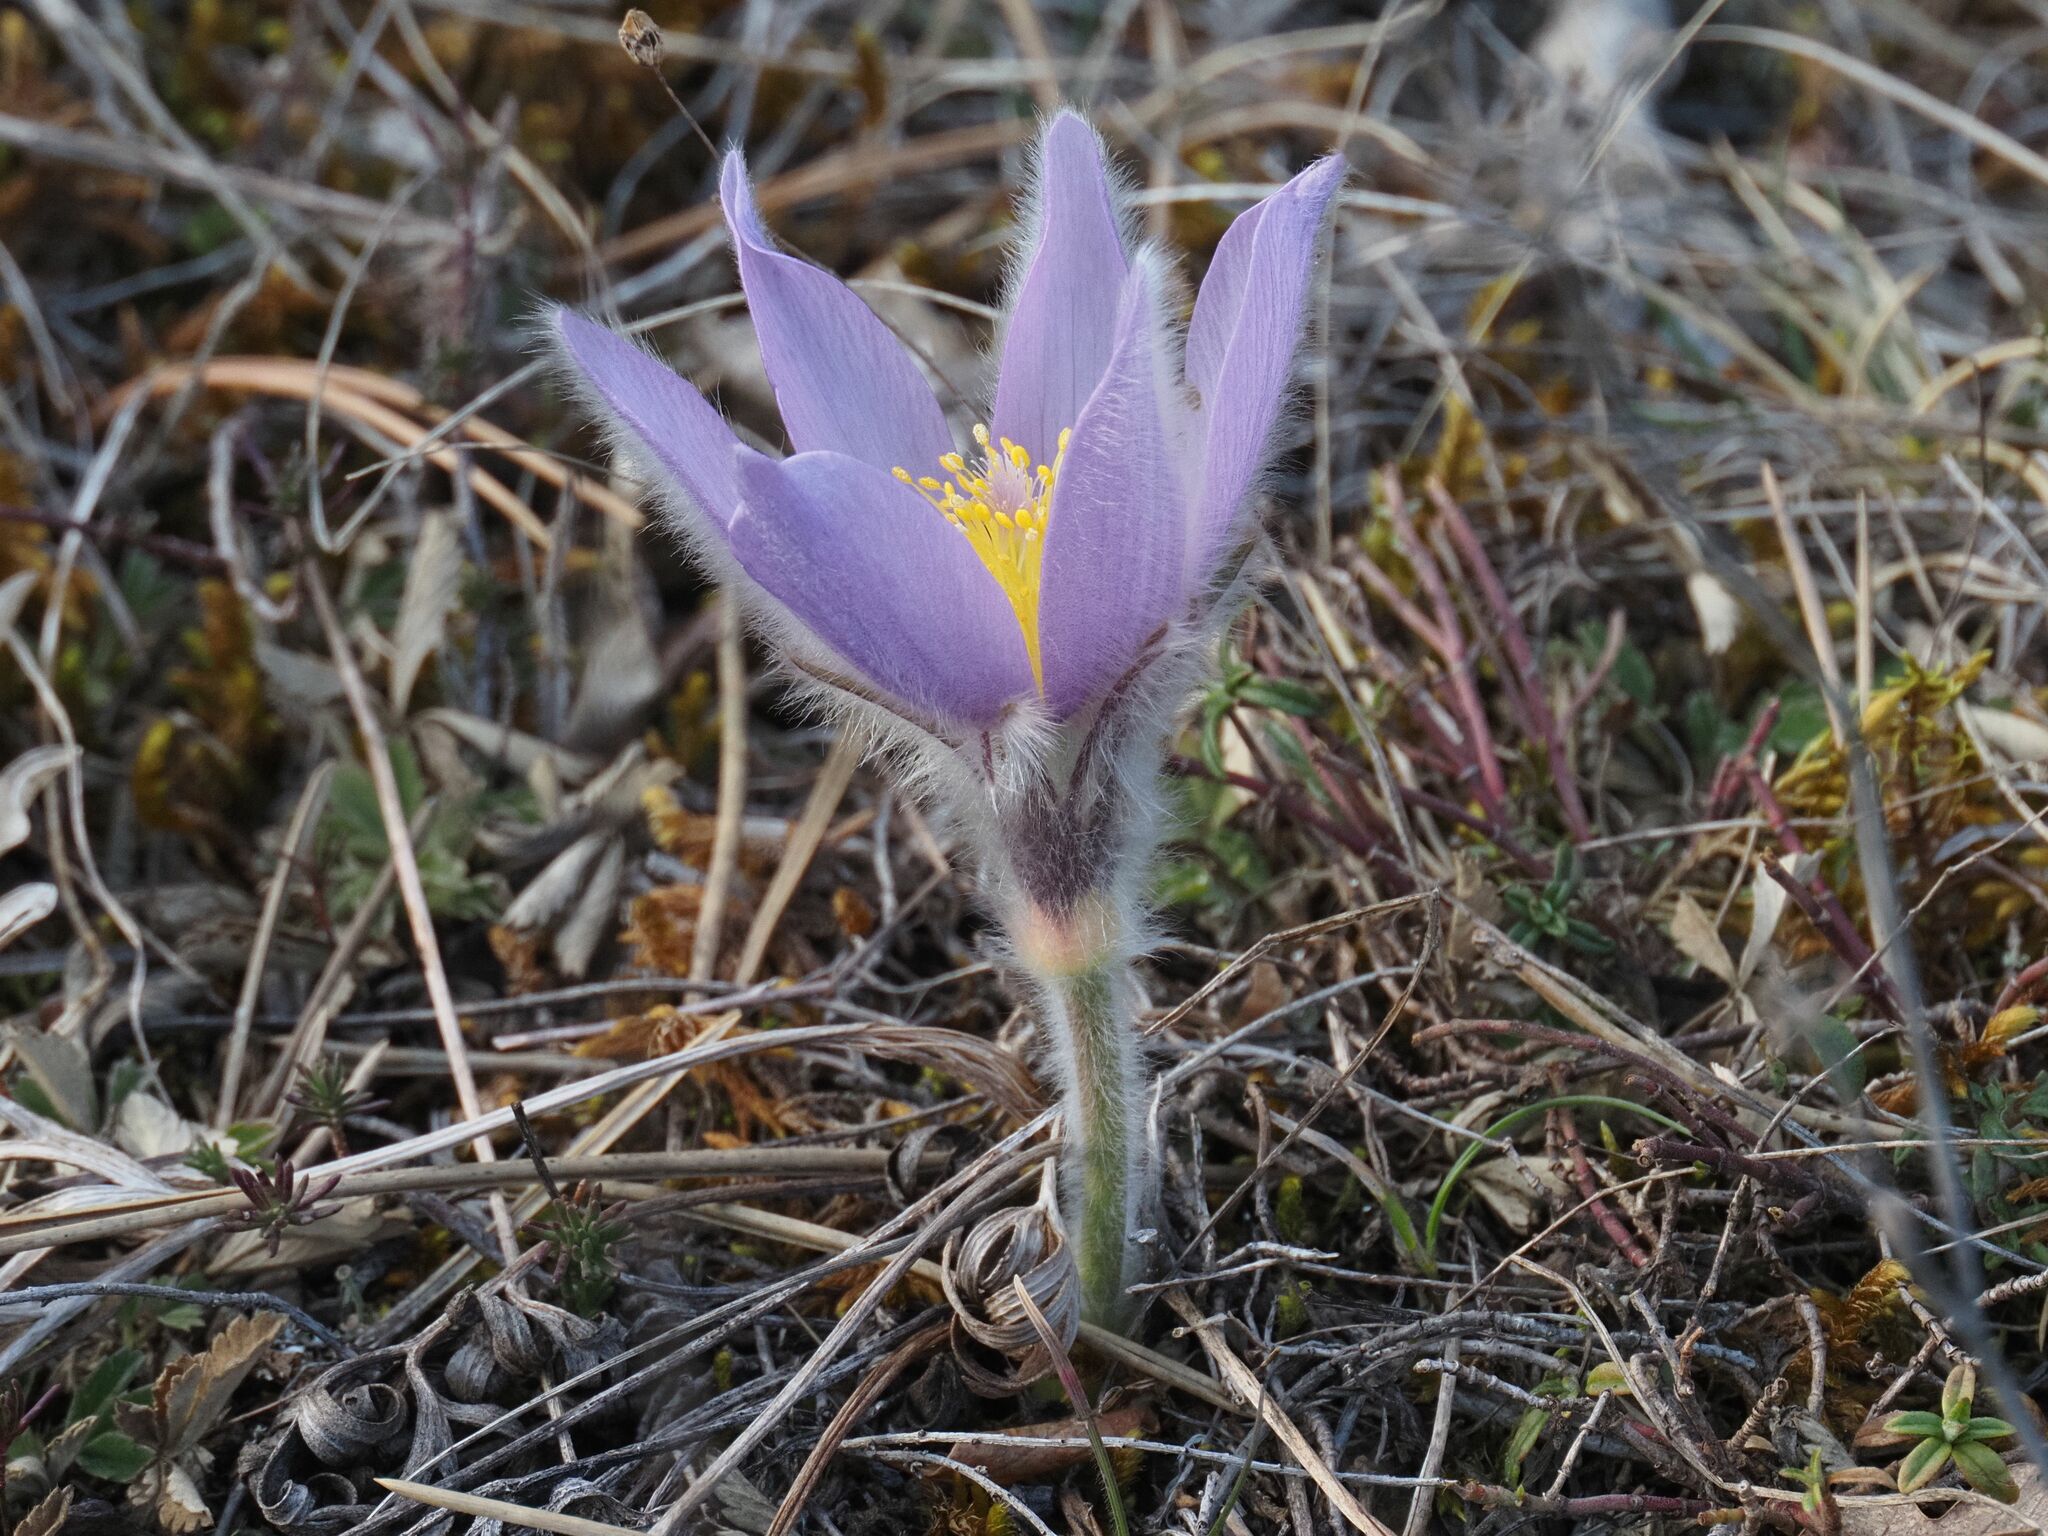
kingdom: Plantae
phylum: Tracheophyta
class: Magnoliopsida
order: Ranunculales
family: Ranunculaceae
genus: Pulsatilla
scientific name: Pulsatilla grandis
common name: Greater pasque flower
